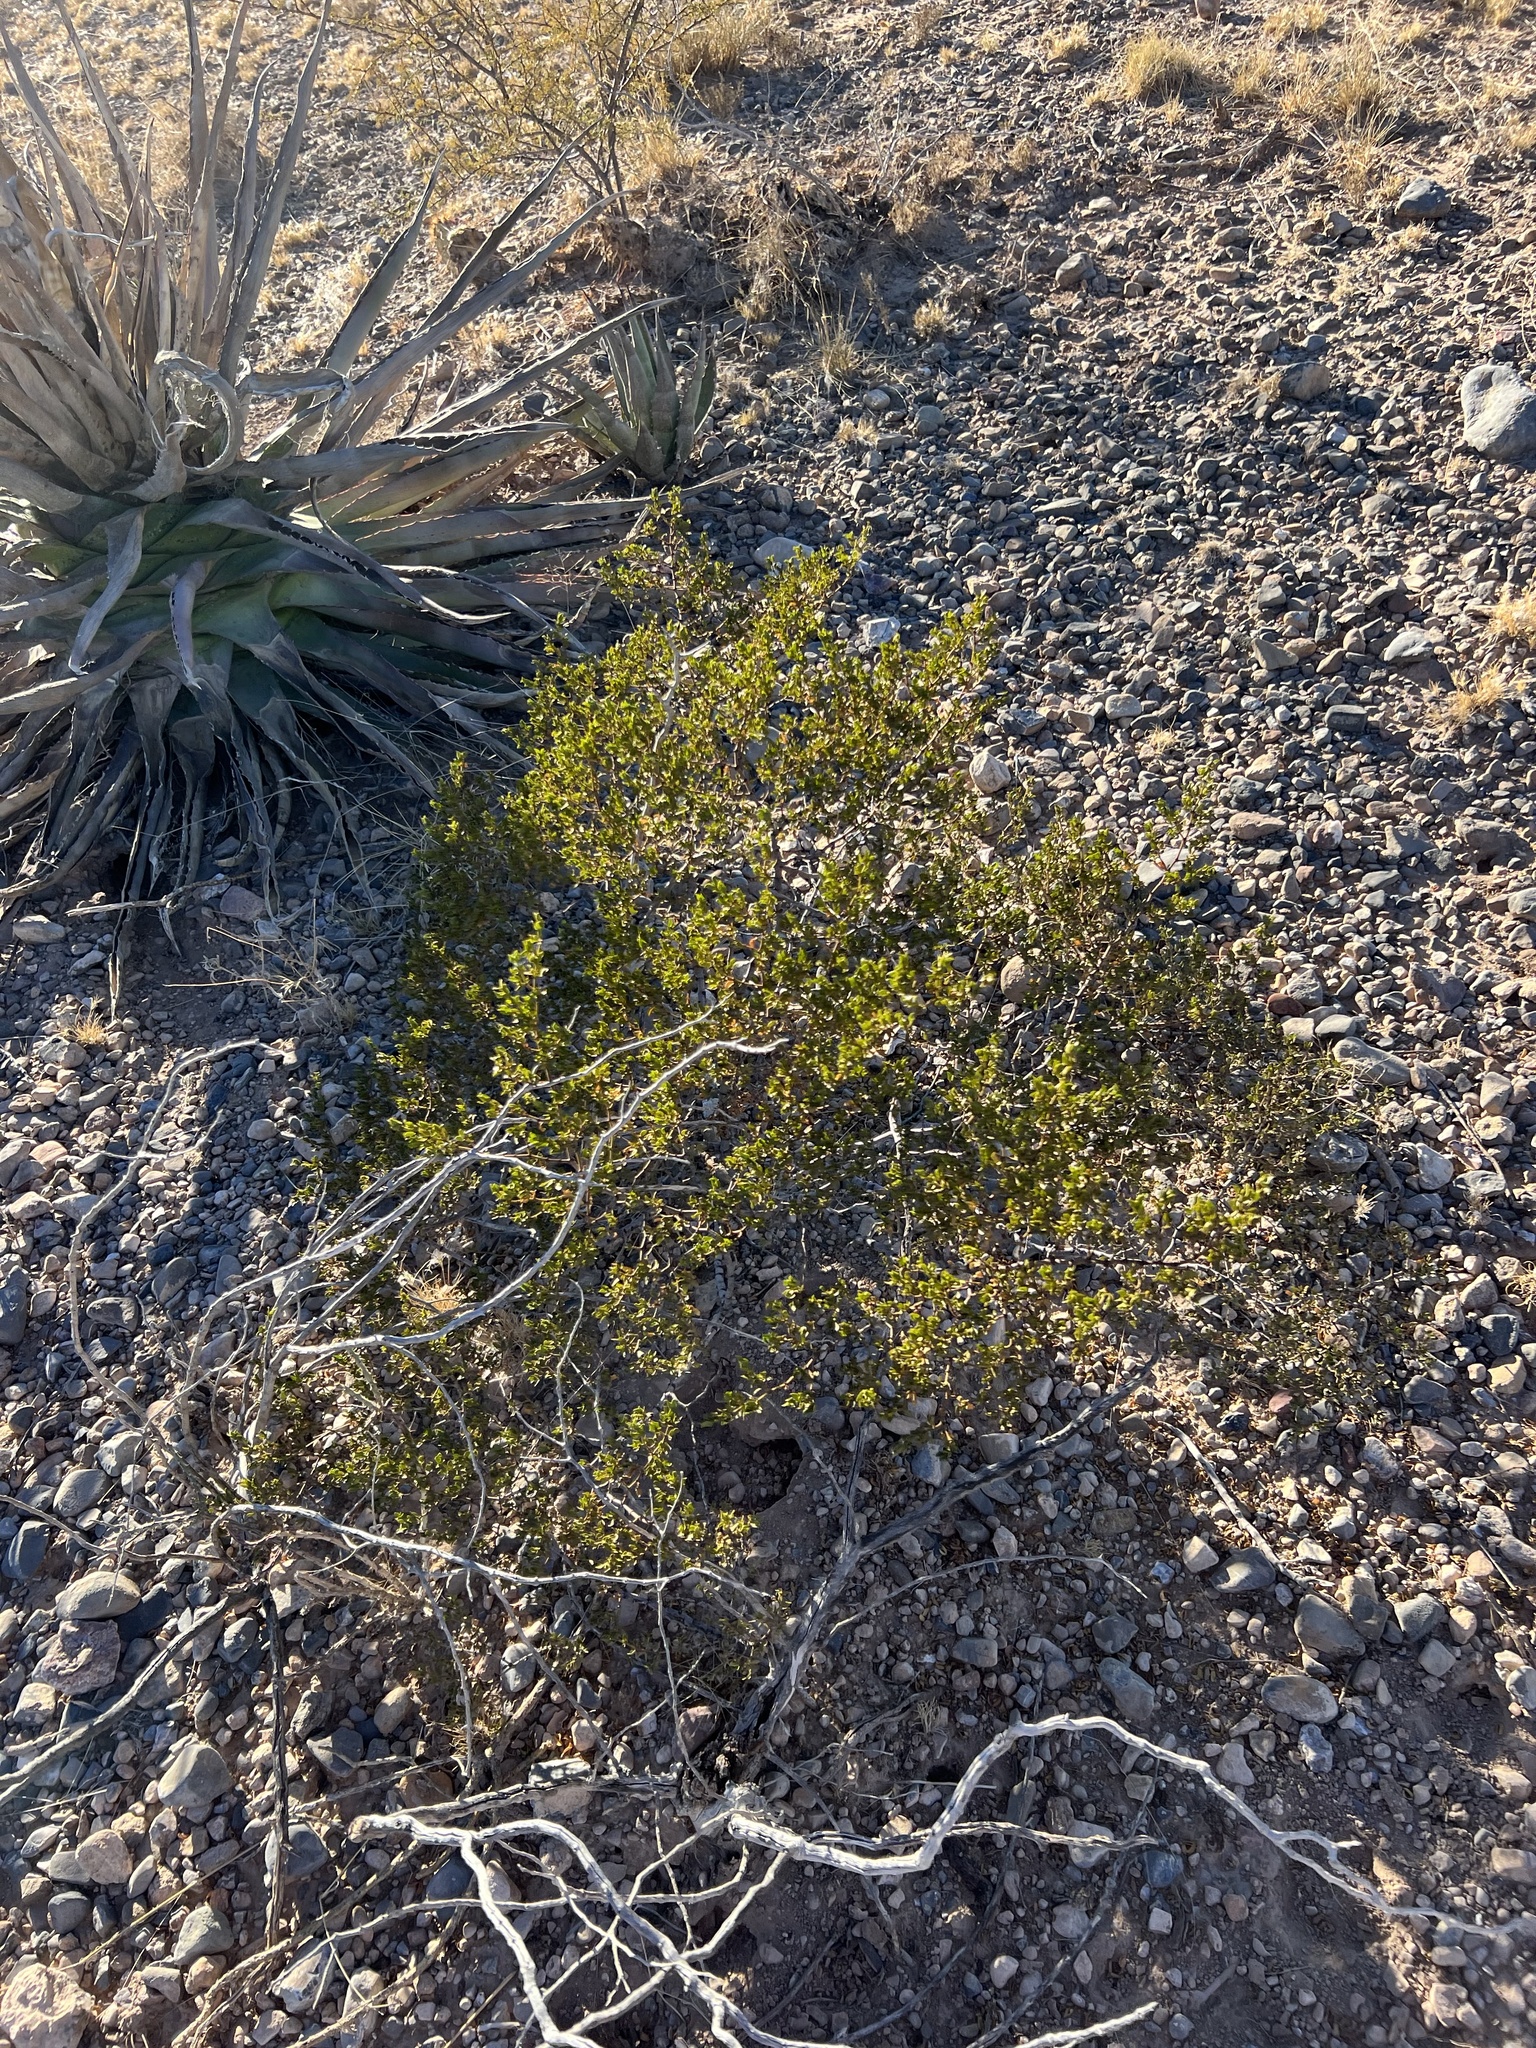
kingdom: Plantae
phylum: Tracheophyta
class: Magnoliopsida
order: Zygophyllales
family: Zygophyllaceae
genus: Larrea
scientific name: Larrea tridentata
